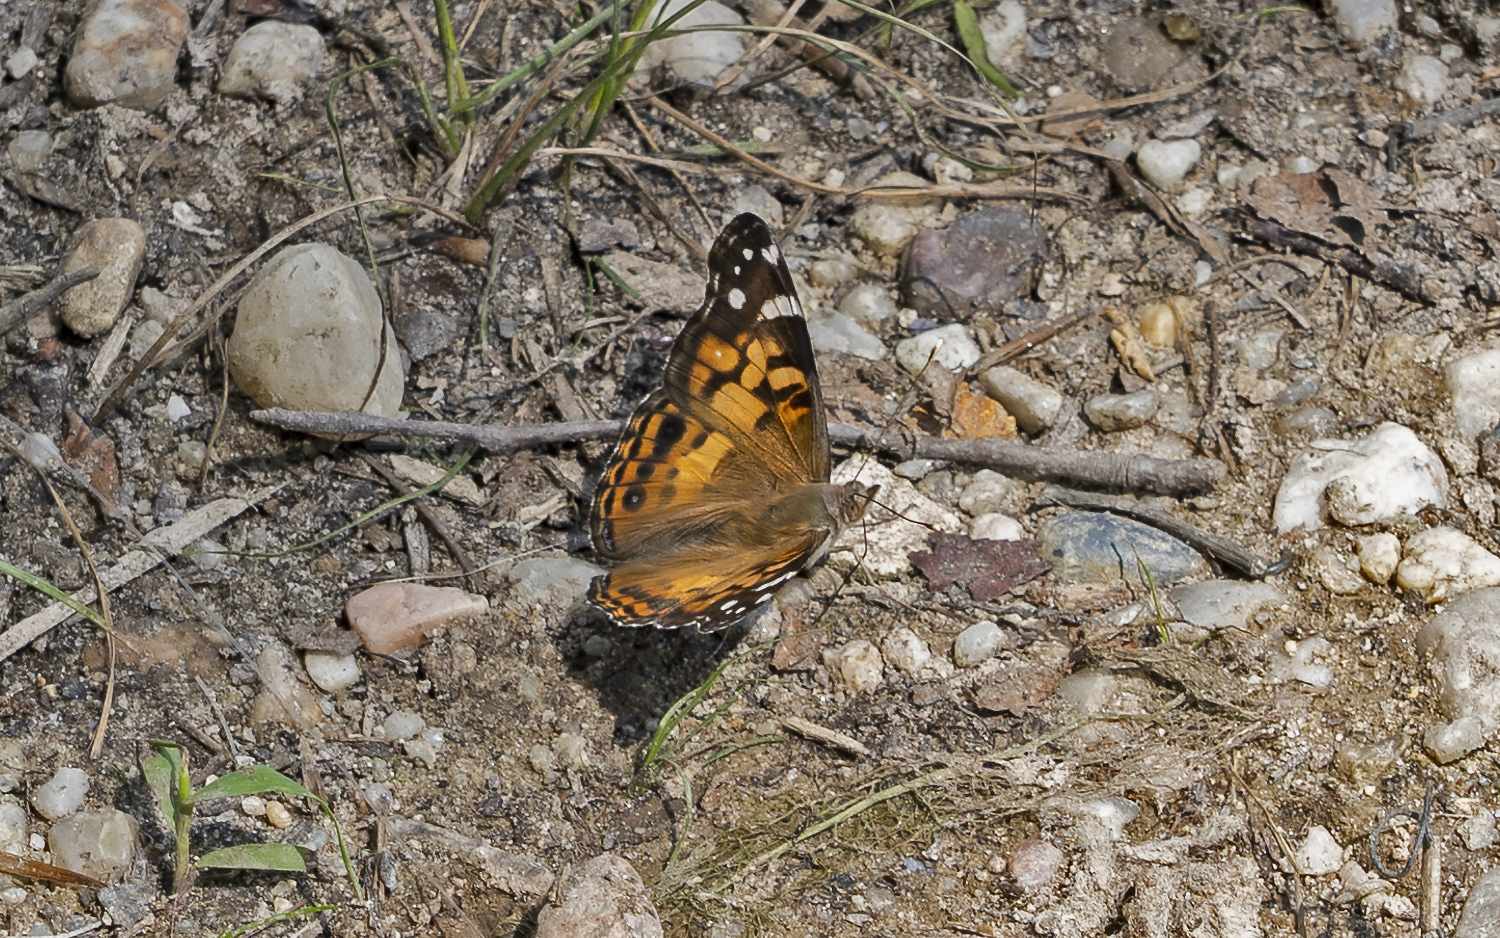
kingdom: Animalia
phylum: Arthropoda
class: Insecta
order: Lepidoptera
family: Nymphalidae
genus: Vanessa
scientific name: Vanessa virginiensis
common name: American lady
